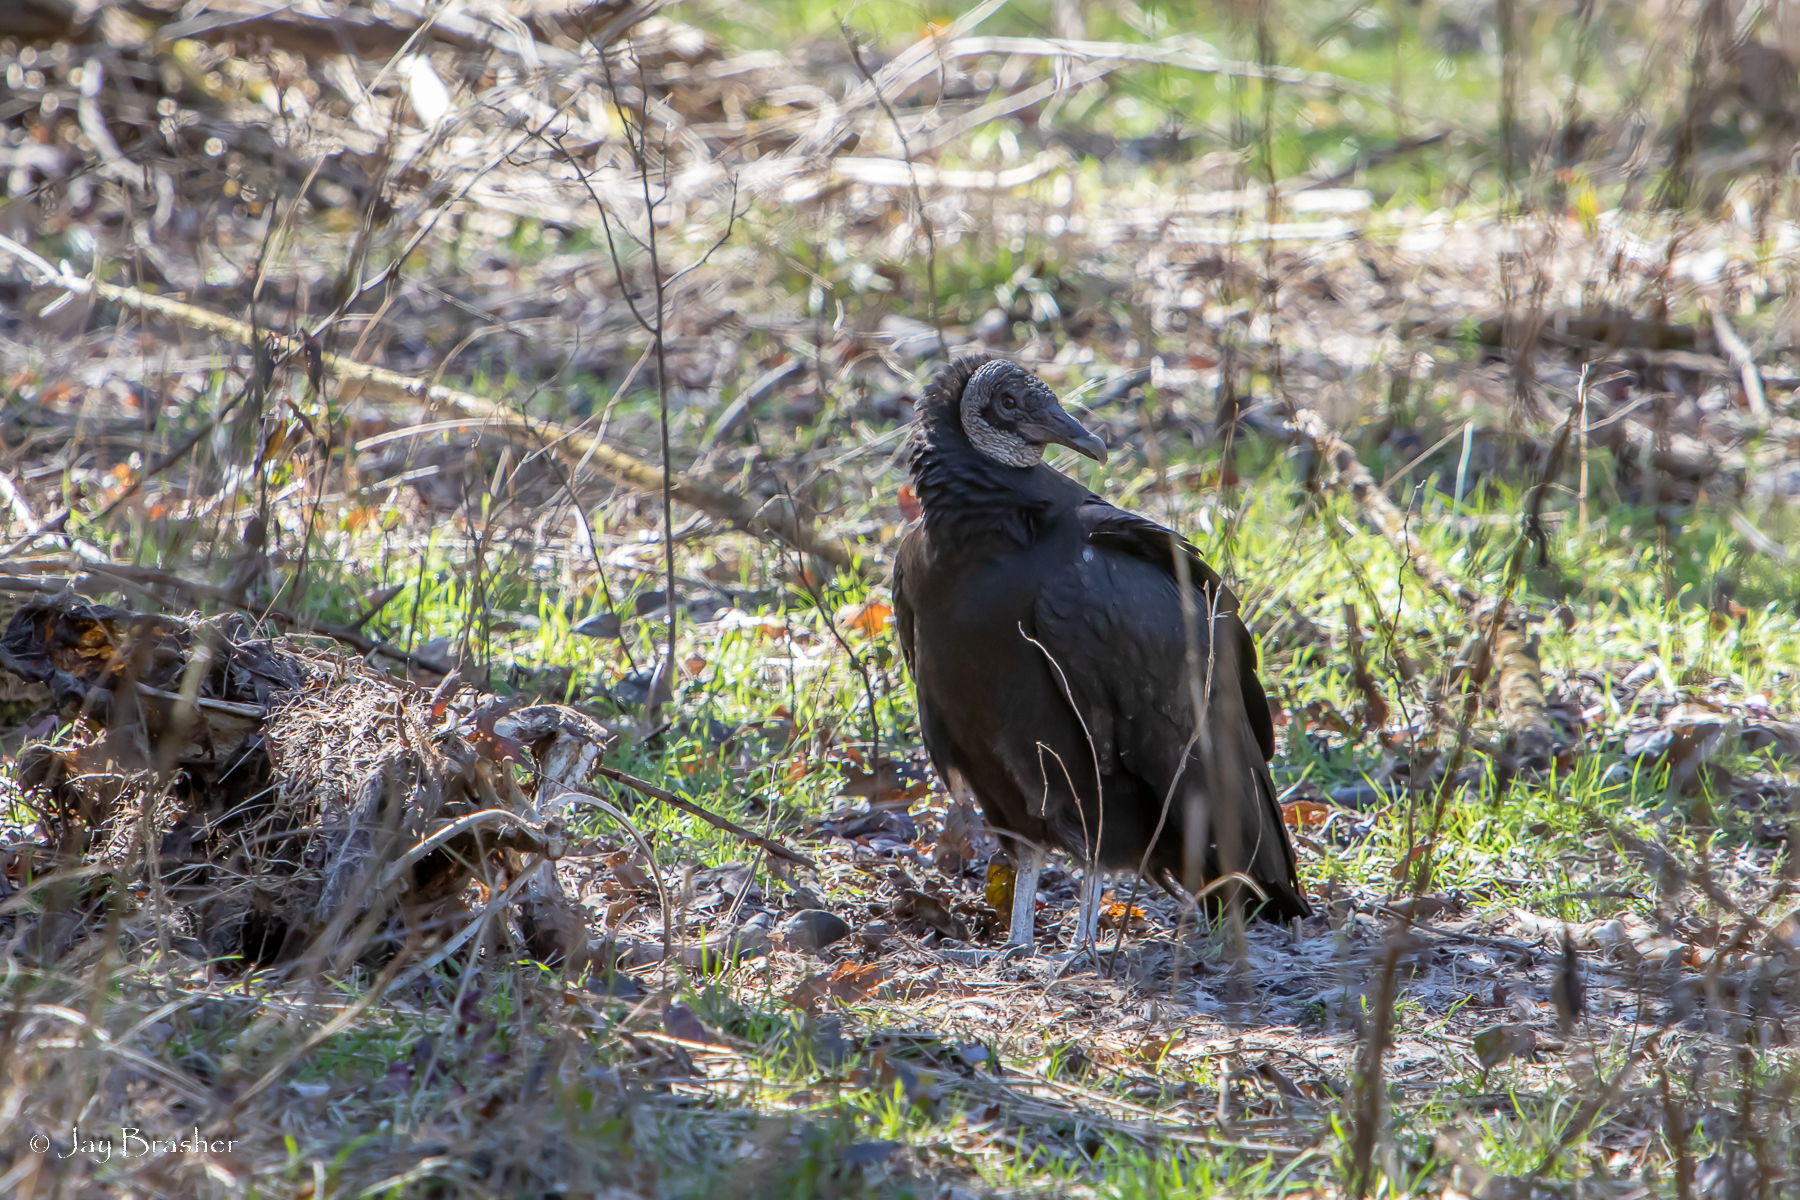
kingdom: Animalia
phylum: Chordata
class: Aves
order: Accipitriformes
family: Cathartidae
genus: Coragyps
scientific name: Coragyps atratus
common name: Black vulture
